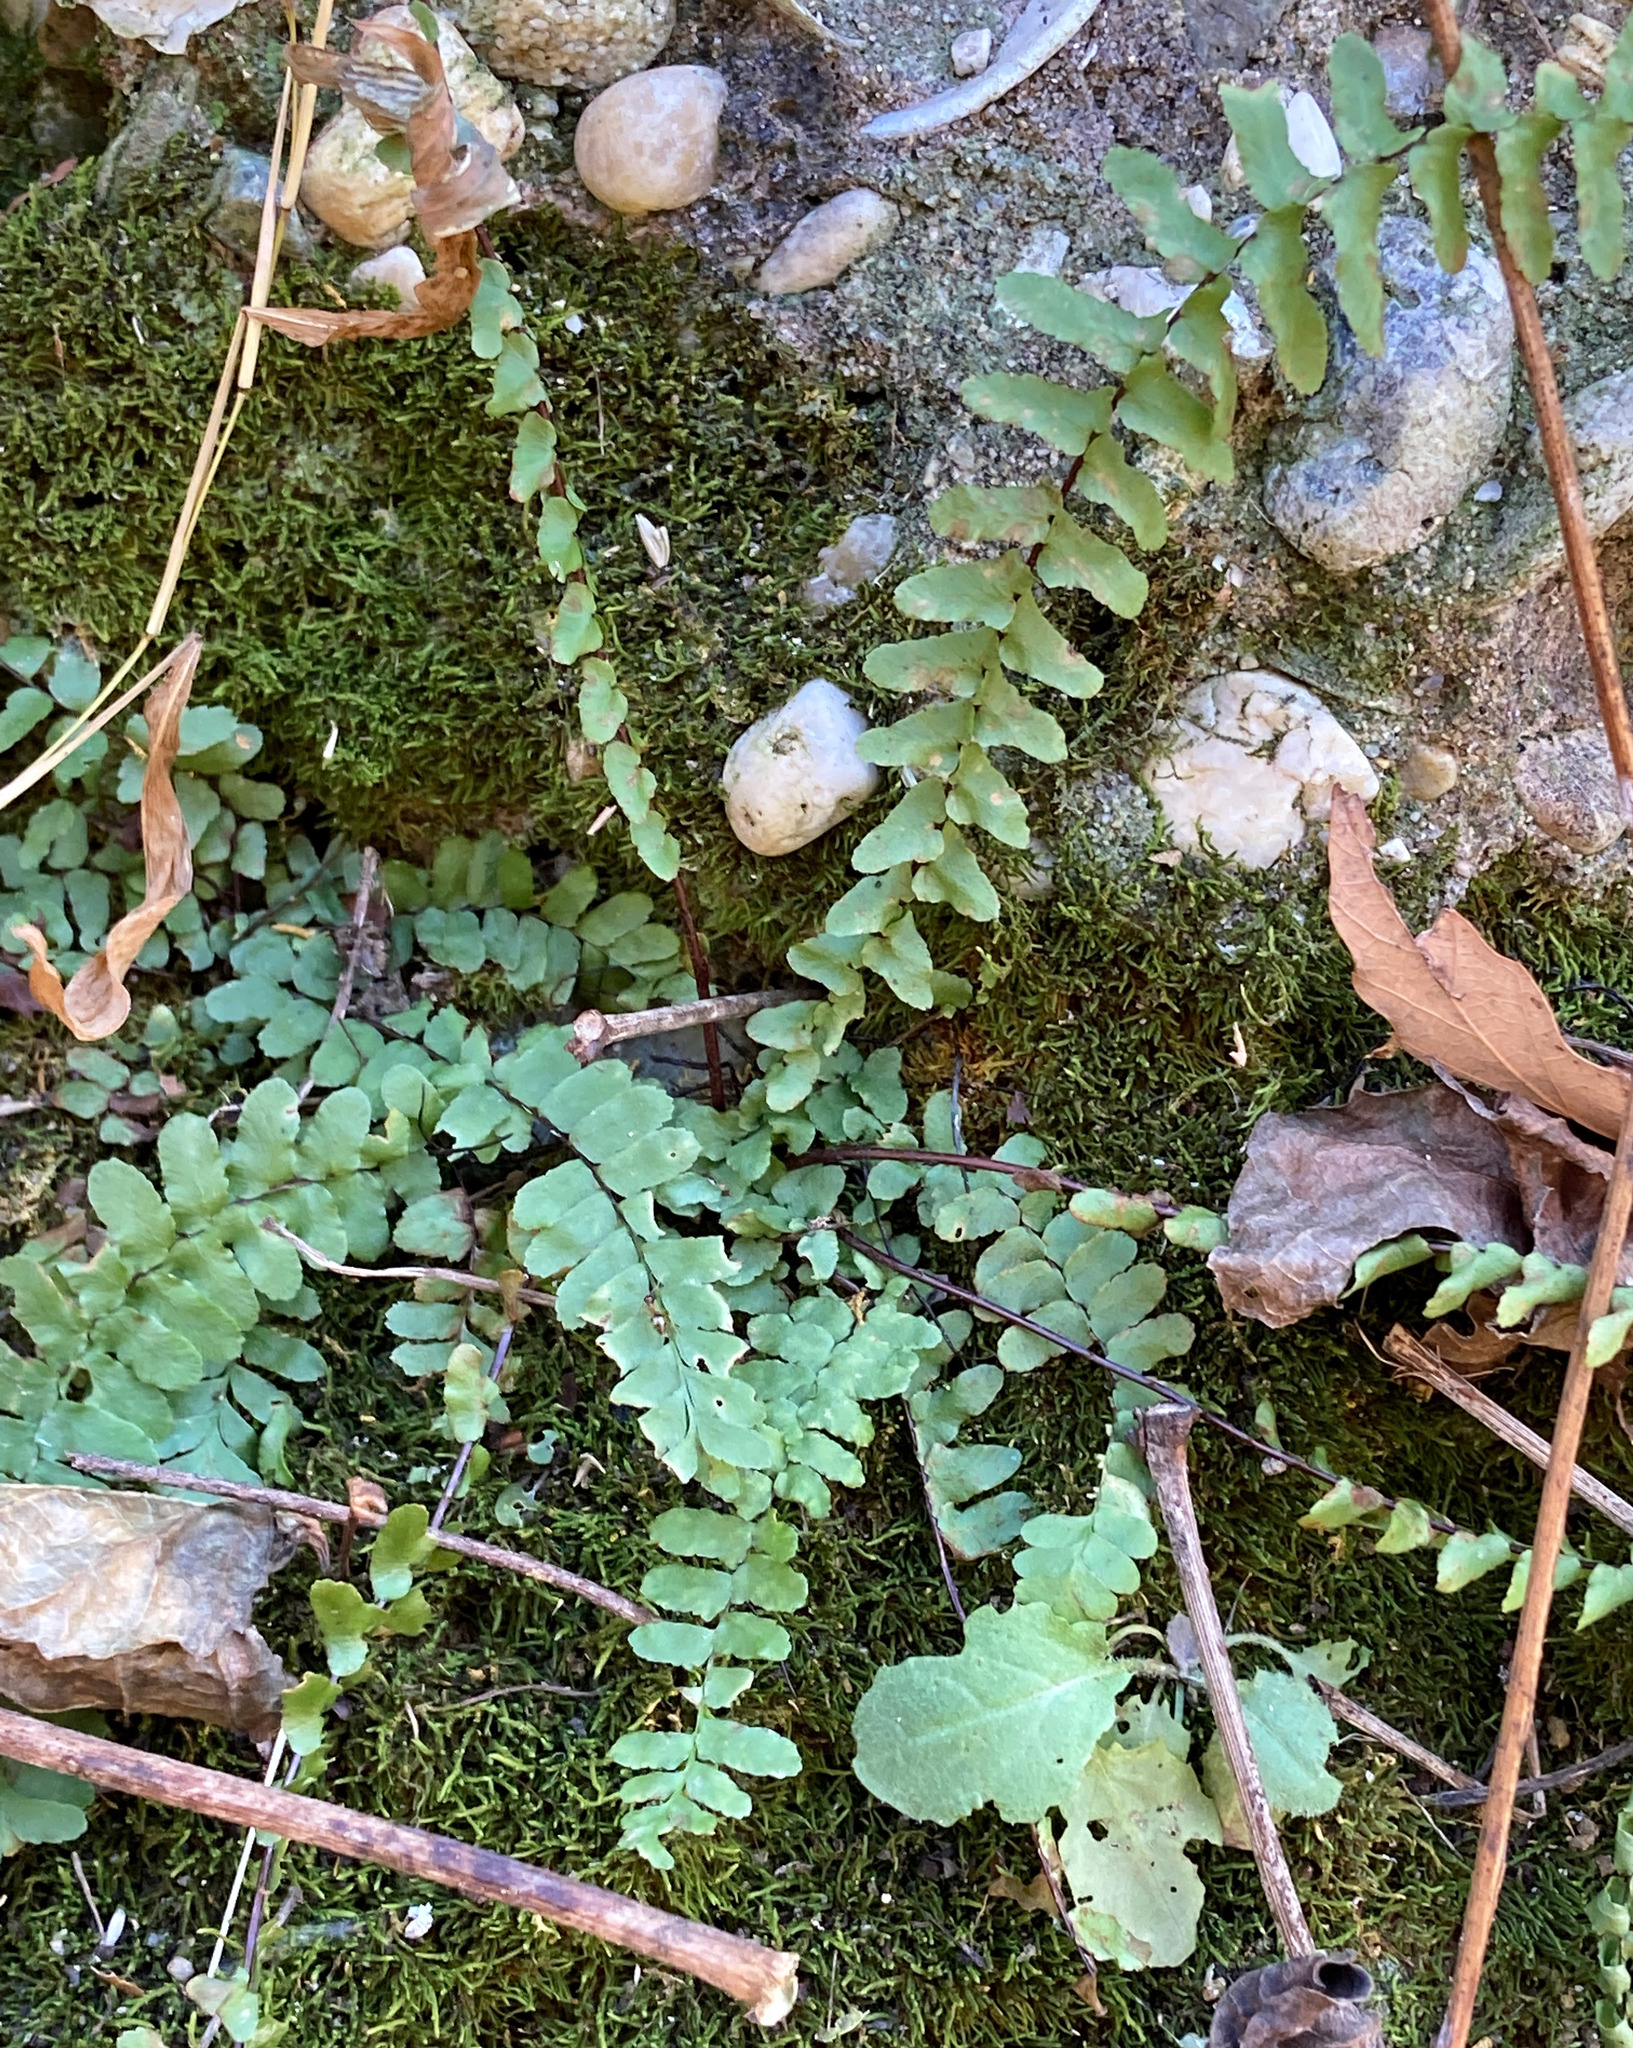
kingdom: Plantae
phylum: Tracheophyta
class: Polypodiopsida
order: Polypodiales
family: Aspleniaceae
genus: Asplenium
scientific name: Asplenium platyneuron
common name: Ebony spleenwort
